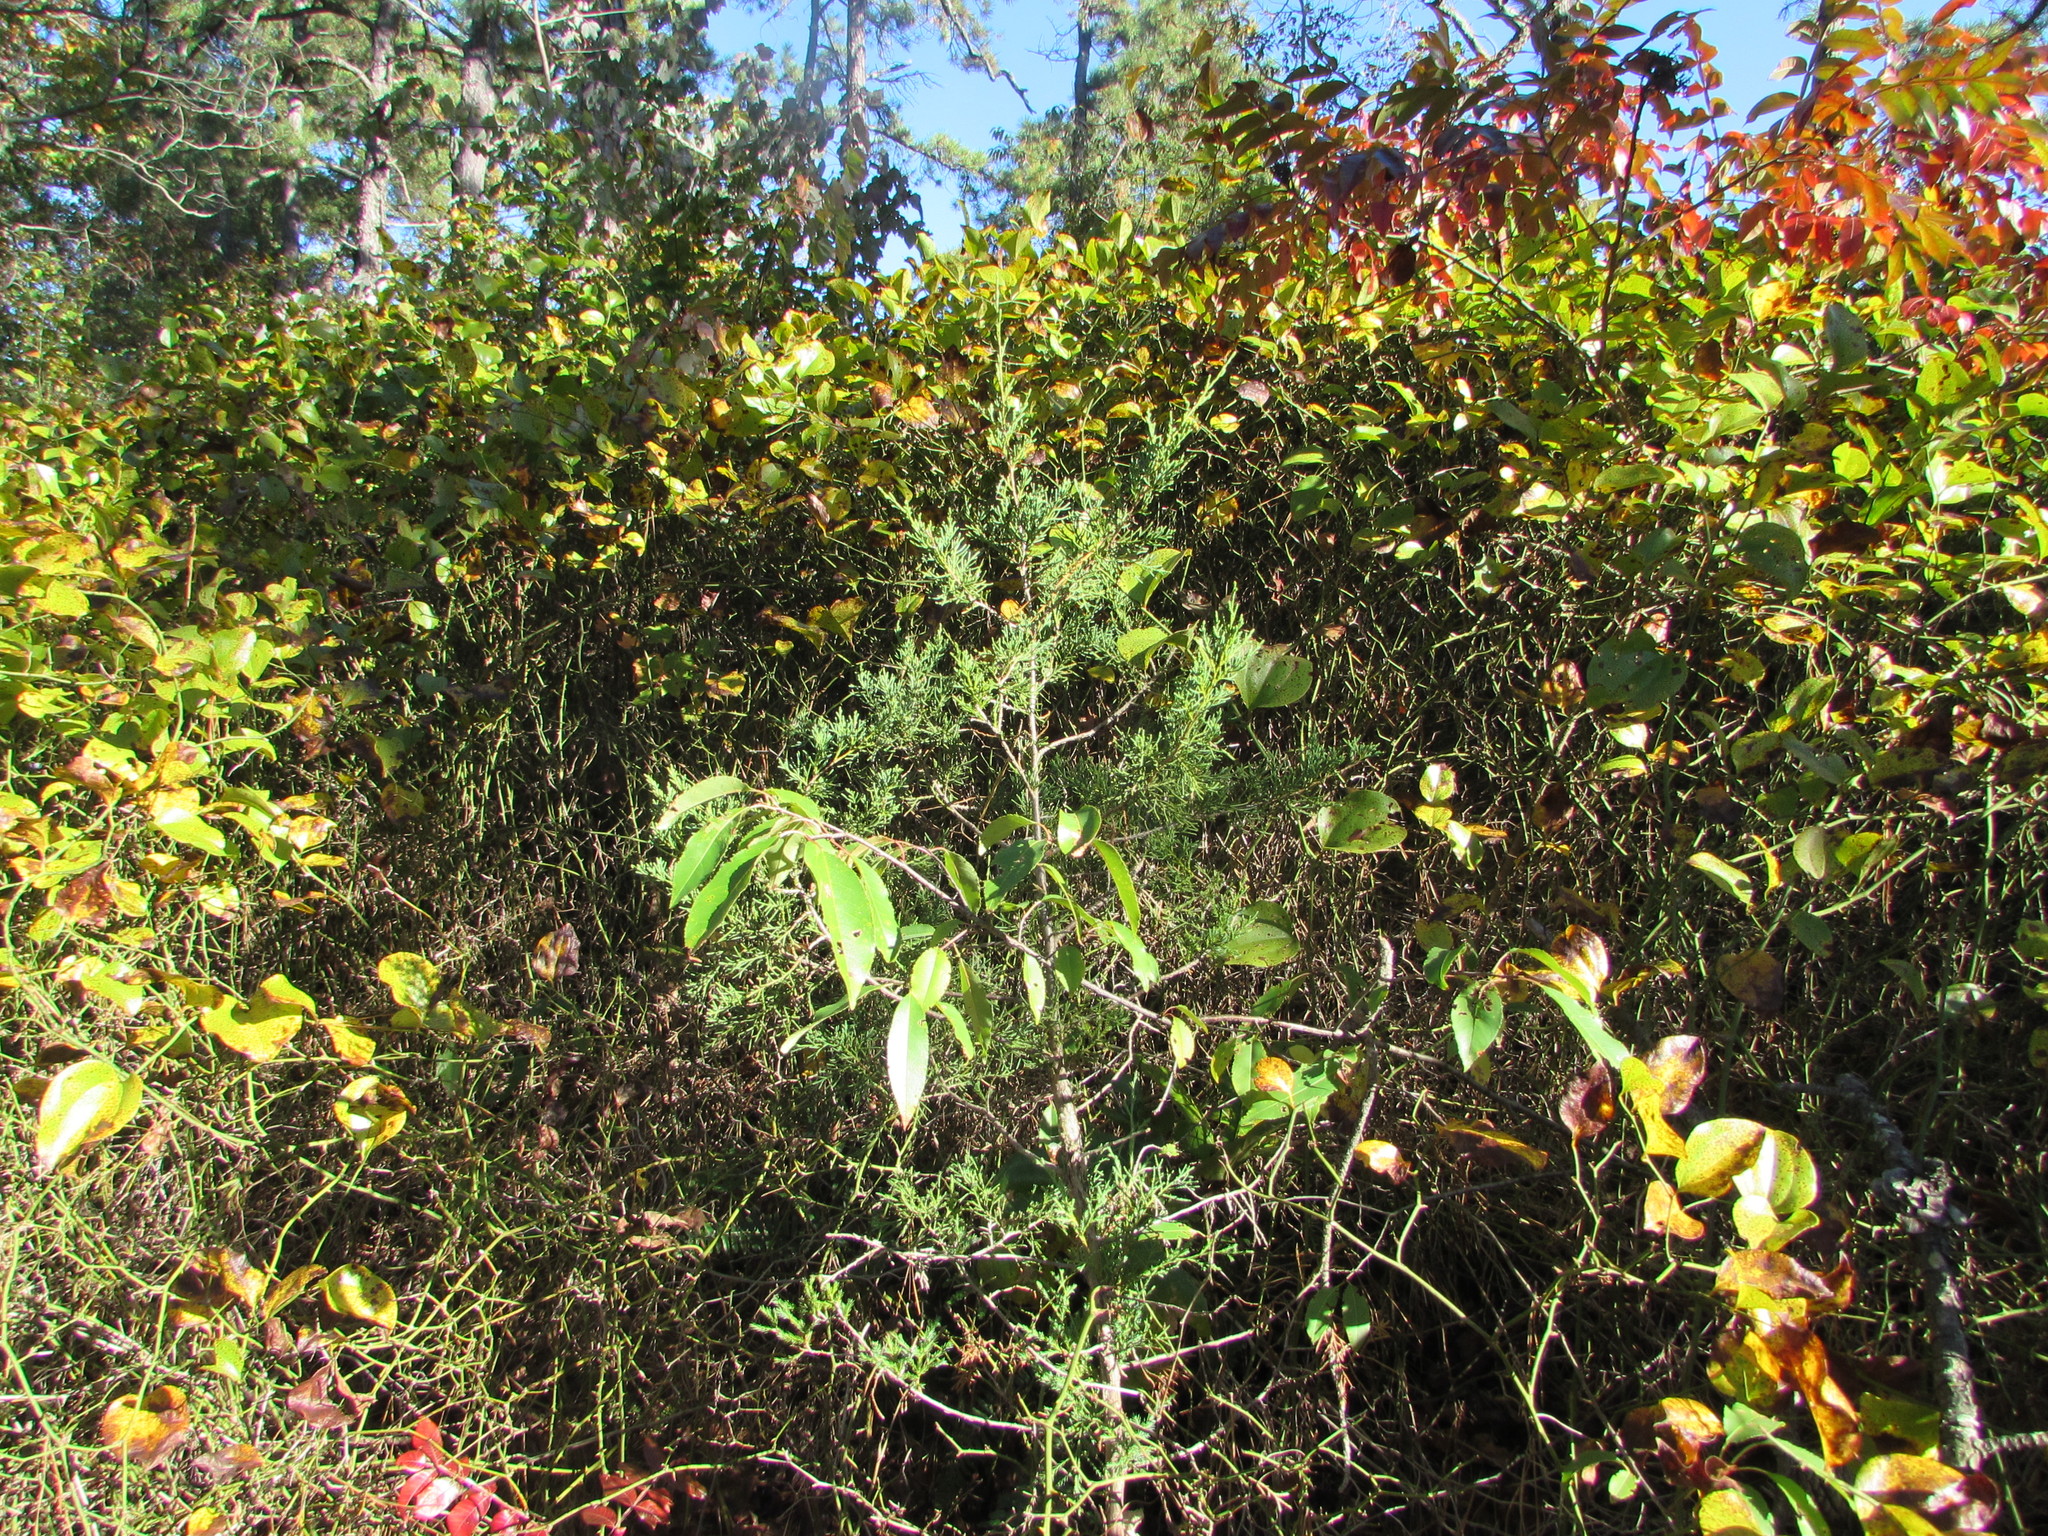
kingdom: Plantae
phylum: Tracheophyta
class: Pinopsida
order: Pinales
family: Cupressaceae
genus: Juniperus
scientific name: Juniperus virginiana
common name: Red juniper
